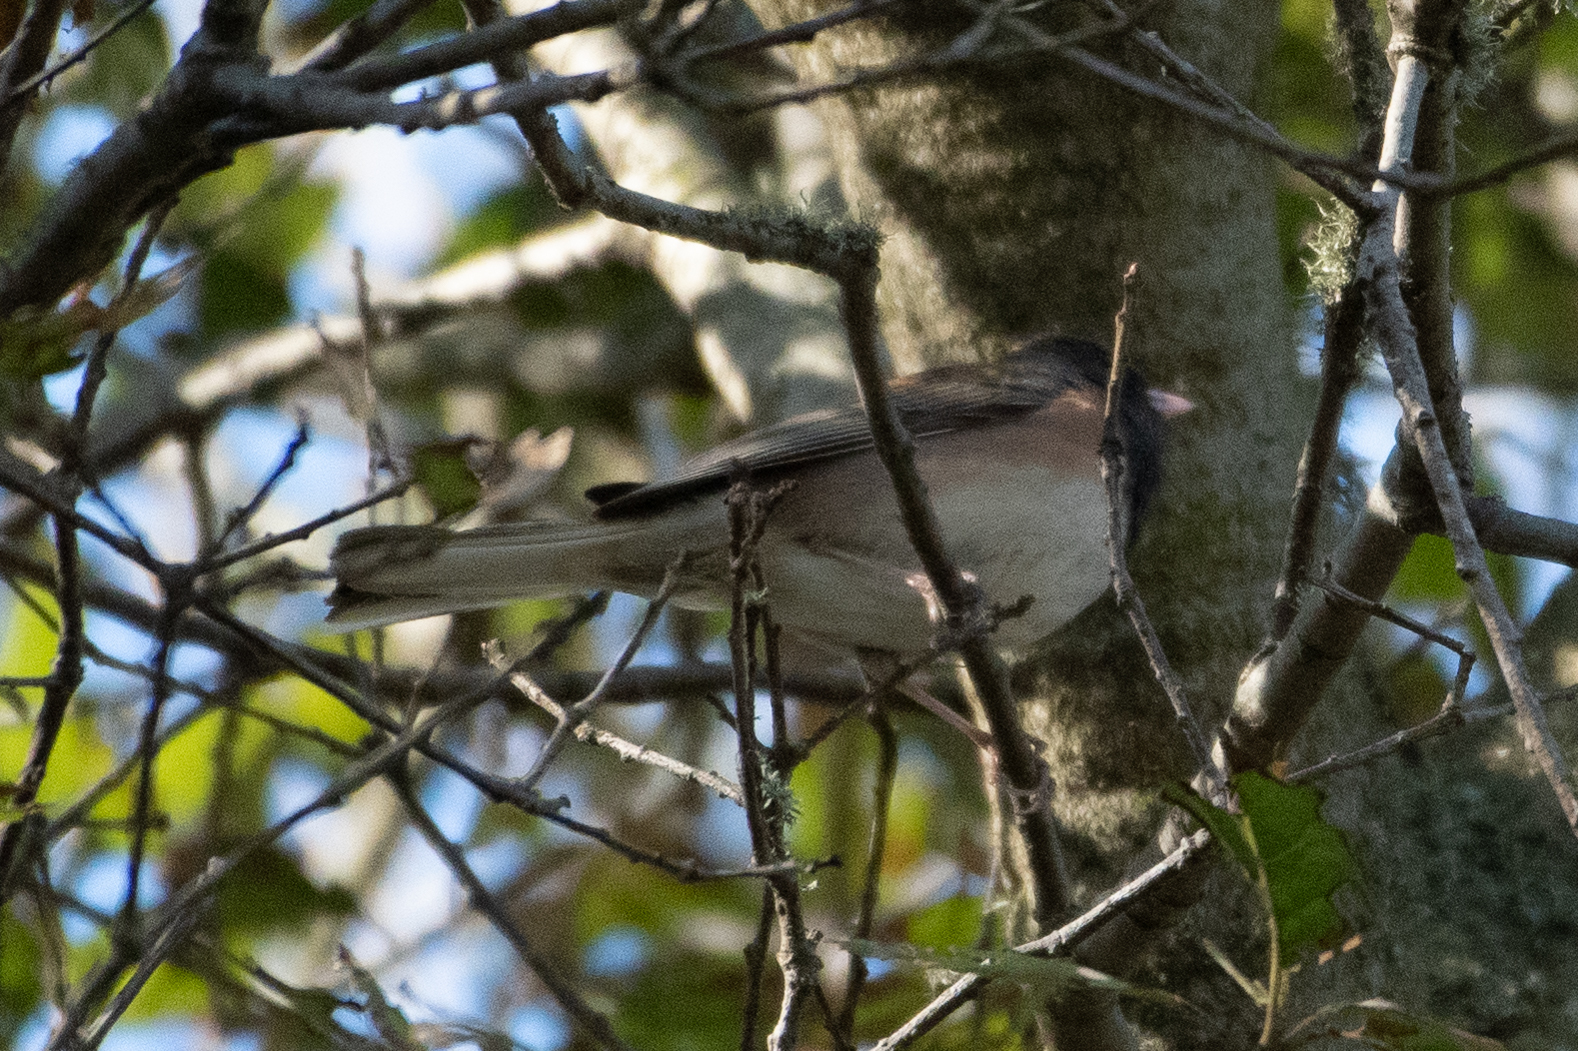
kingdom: Animalia
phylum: Chordata
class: Aves
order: Passeriformes
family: Passerellidae
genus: Junco
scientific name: Junco hyemalis
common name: Dark-eyed junco
